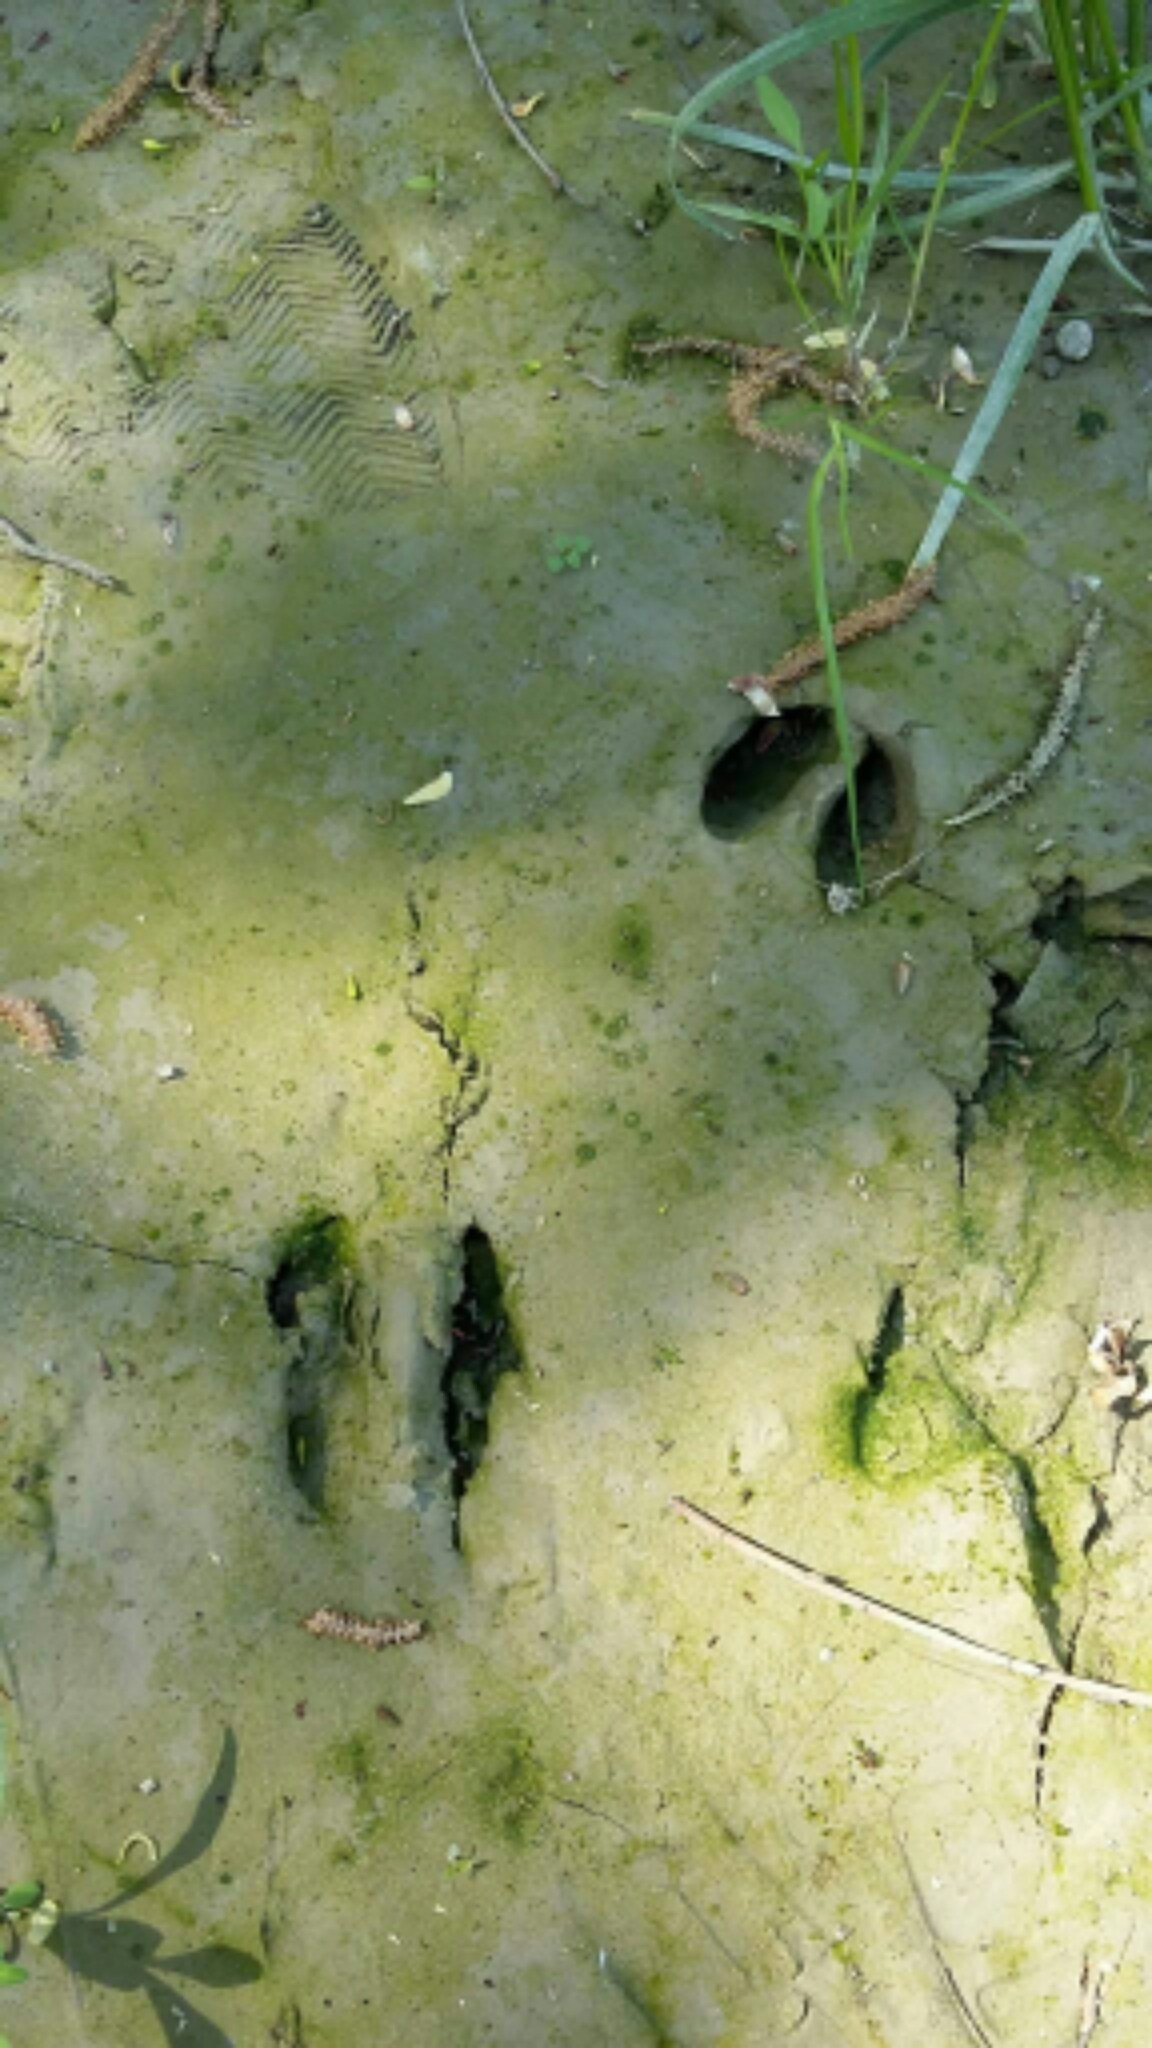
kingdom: Animalia
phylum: Chordata
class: Mammalia
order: Artiodactyla
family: Cervidae
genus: Capreolus
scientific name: Capreolus capreolus
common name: Western roe deer
